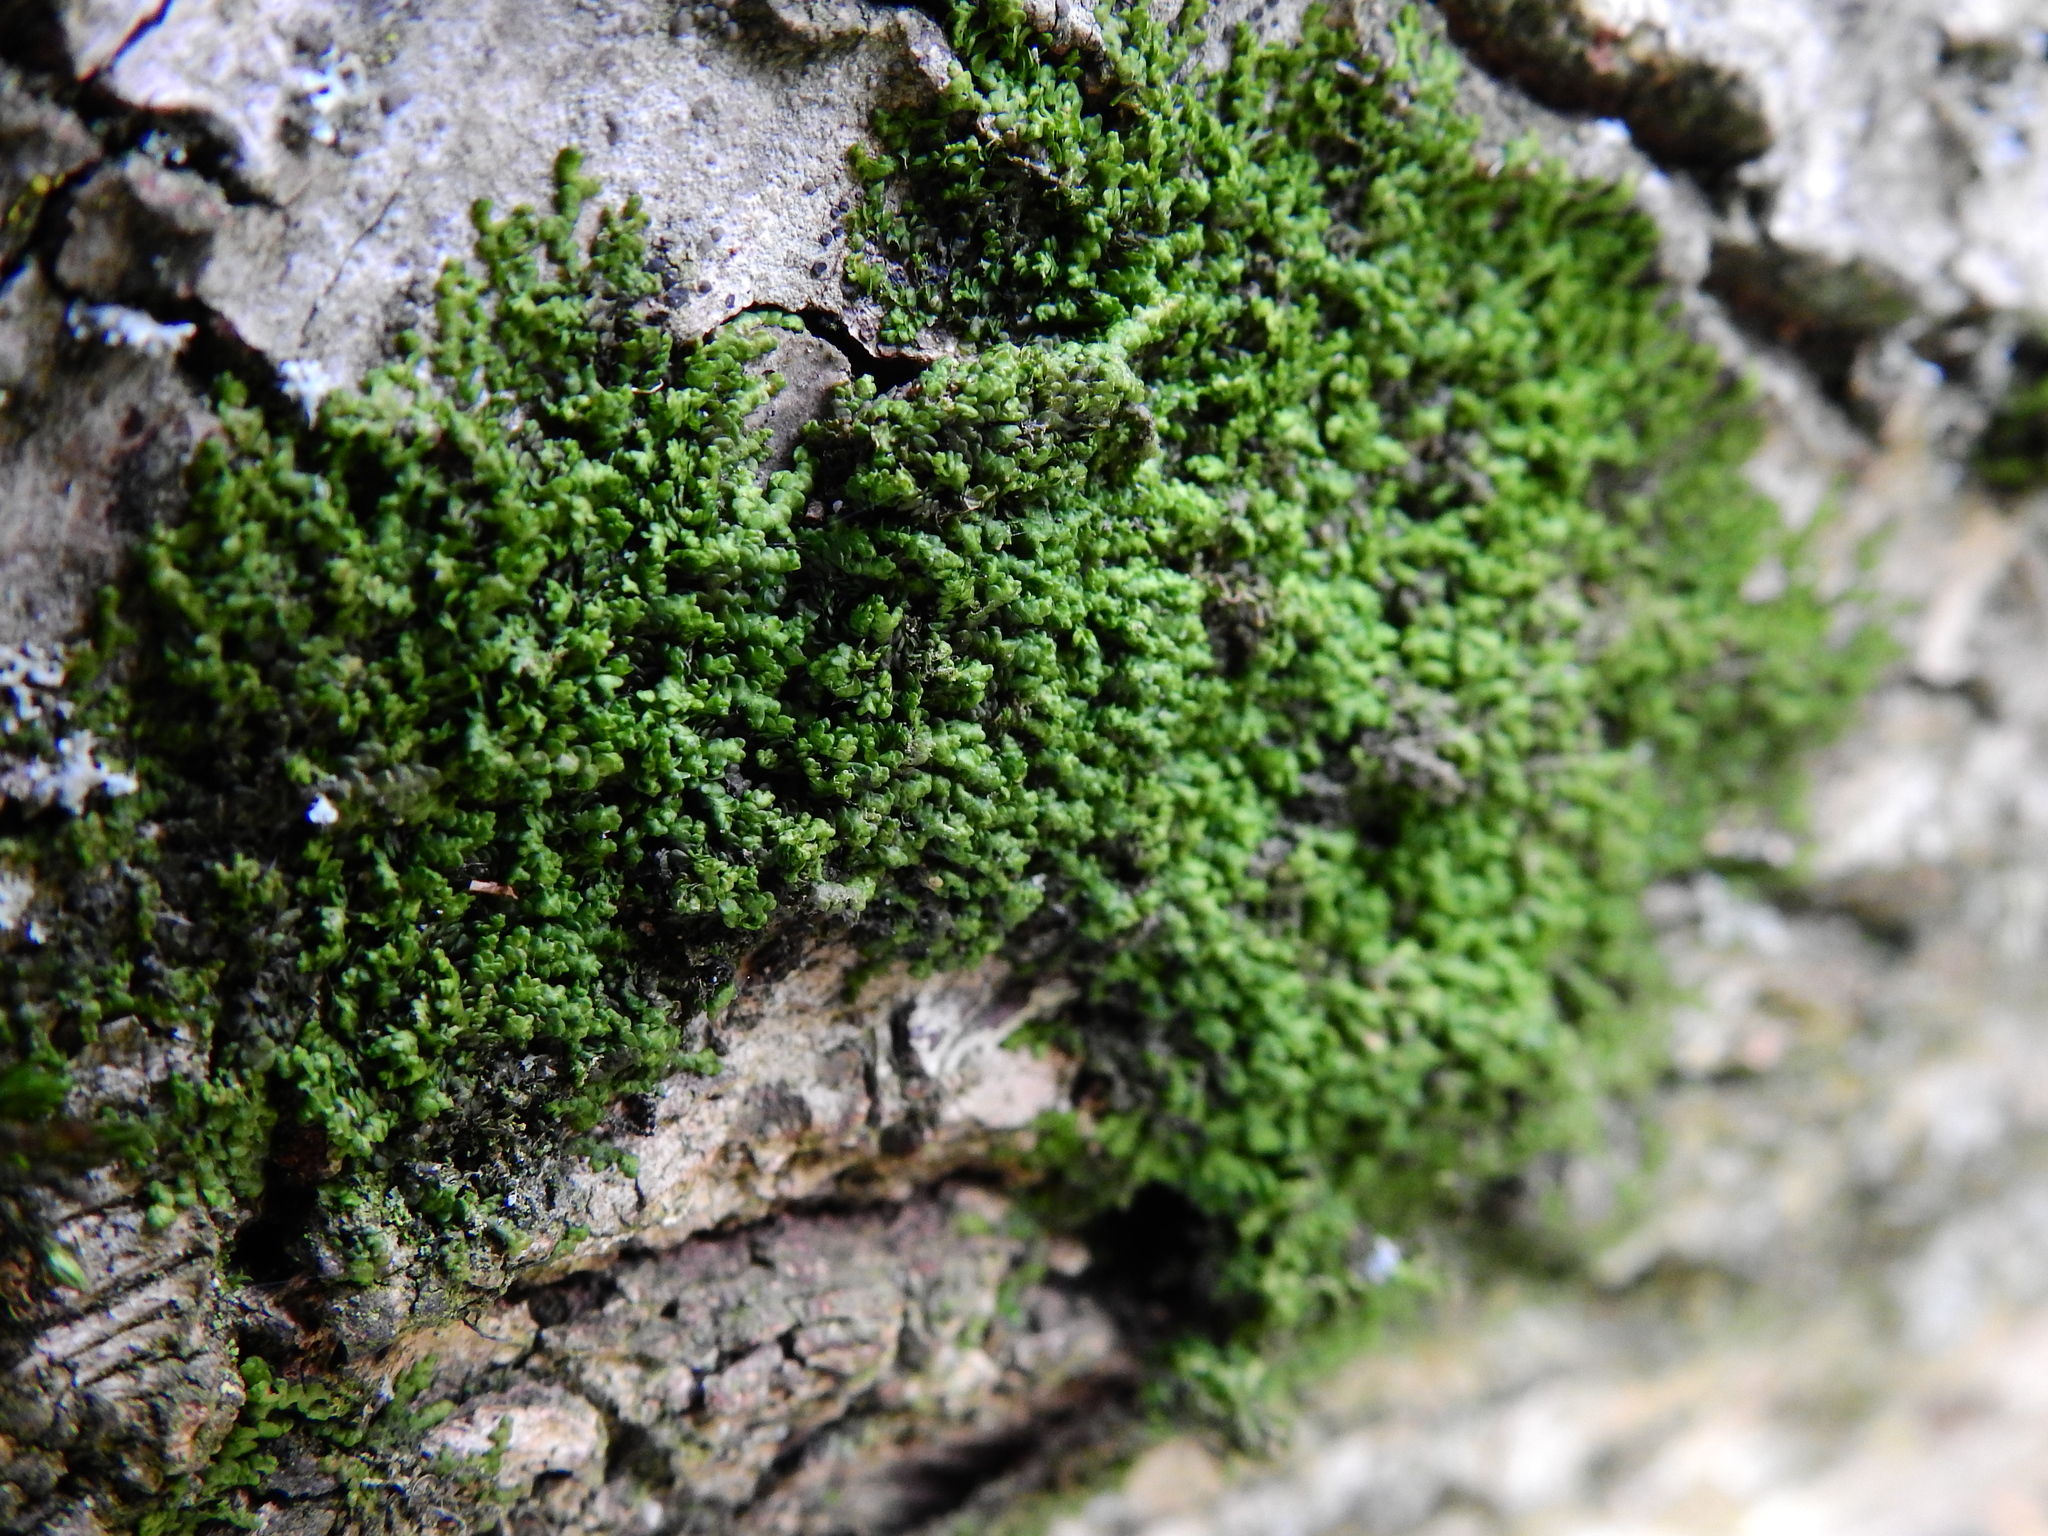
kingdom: Plantae
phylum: Marchantiophyta
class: Jungermanniopsida
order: Porellales
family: Frullaniaceae
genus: Frullania
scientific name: Frullania dilatata
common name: Dilated scalewort
